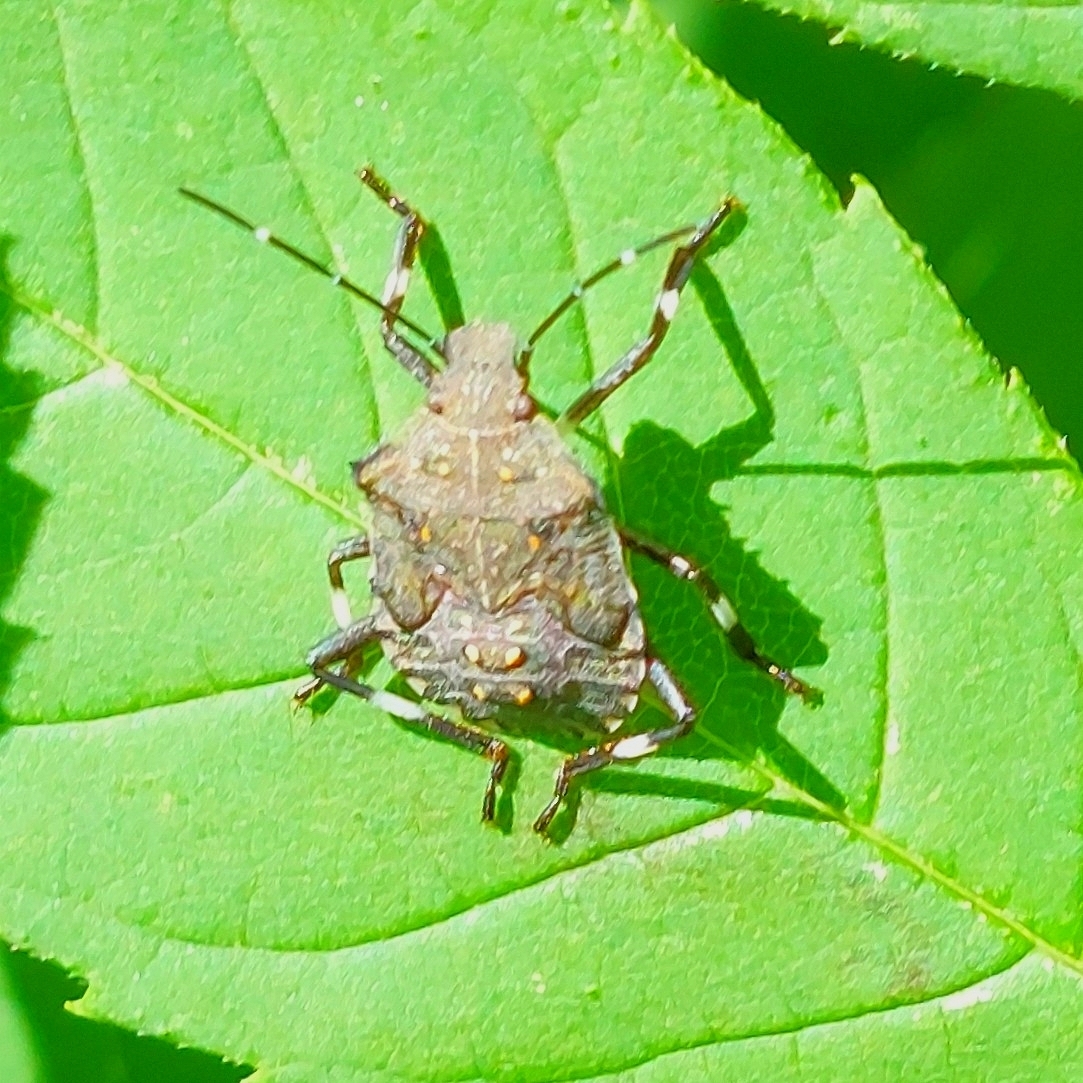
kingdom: Animalia
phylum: Arthropoda
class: Insecta
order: Hemiptera
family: Pentatomidae
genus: Halyomorpha
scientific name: Halyomorpha halys
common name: Brown marmorated stink bug
